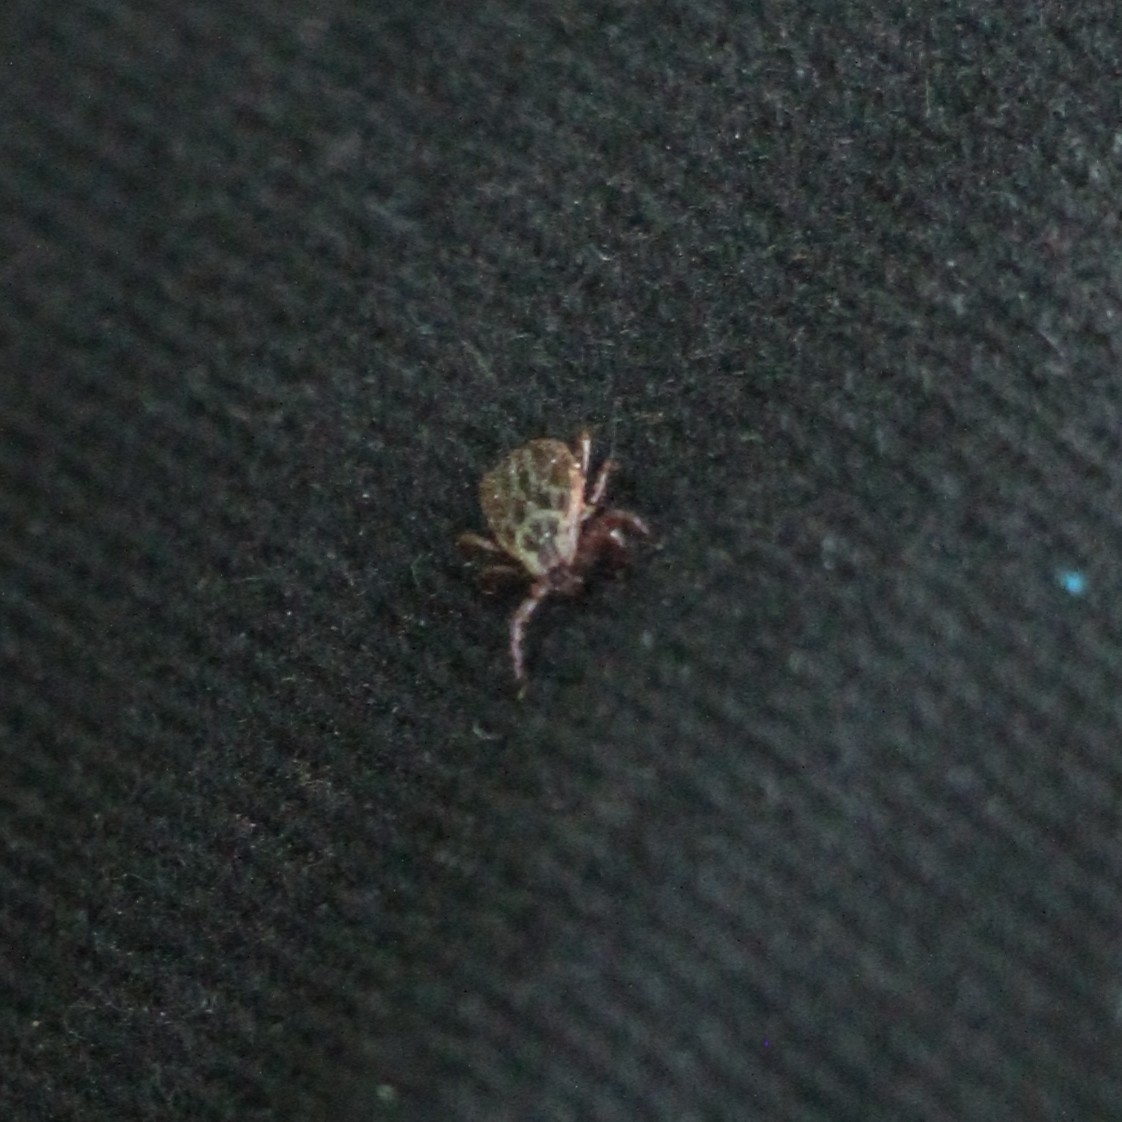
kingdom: Animalia
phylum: Arthropoda
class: Arachnida
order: Ixodida
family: Ixodidae
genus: Dermacentor
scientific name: Dermacentor reticulatus
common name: Ornate cow tick
